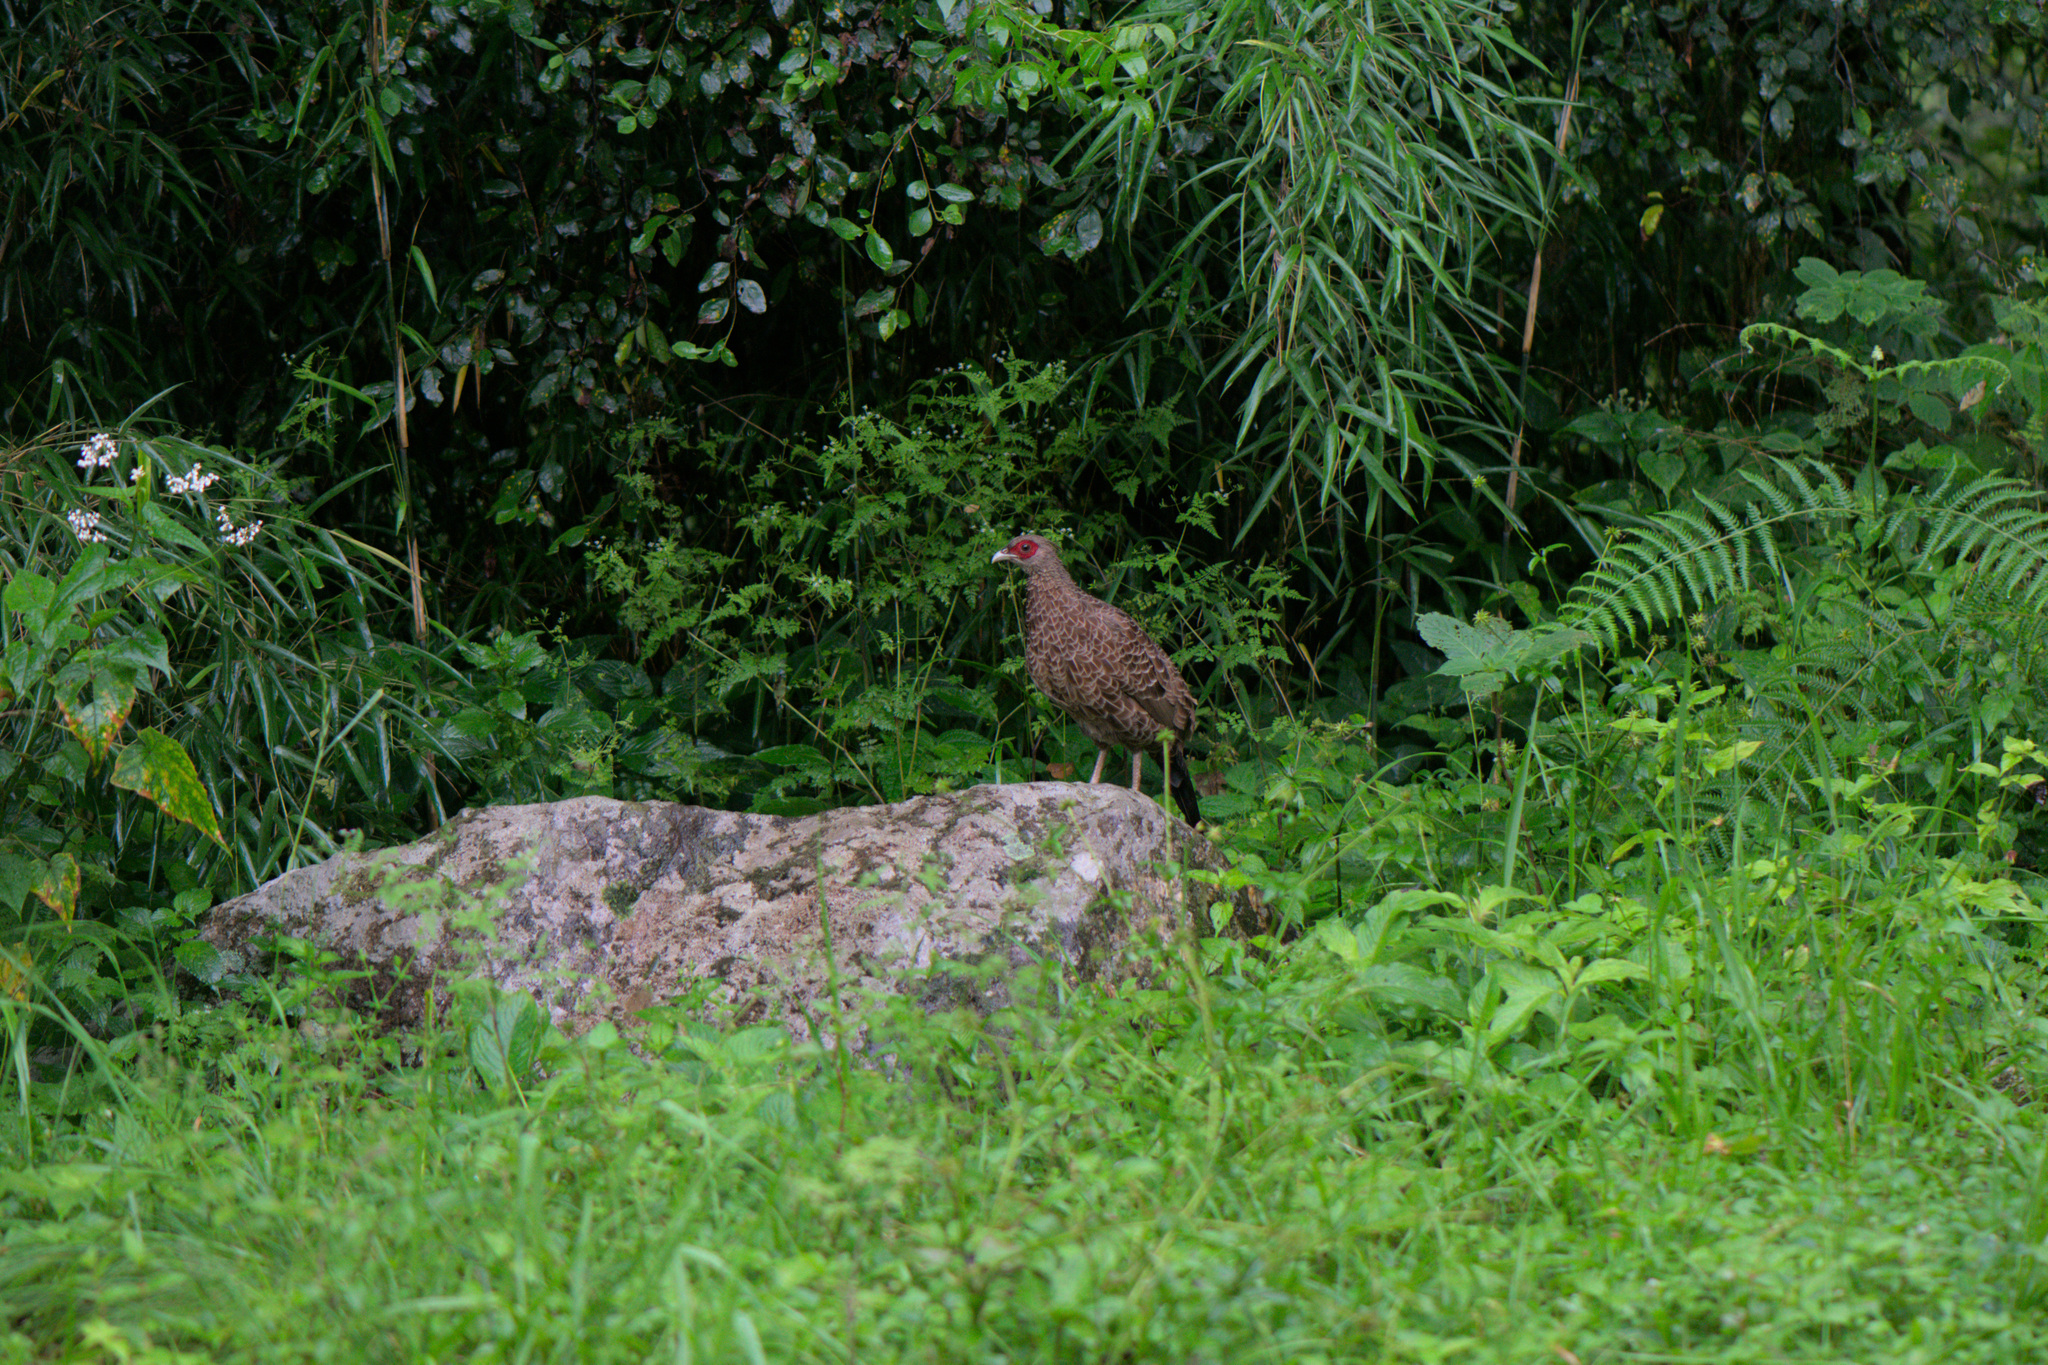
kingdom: Animalia
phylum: Chordata
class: Aves
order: Galliformes
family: Phasianidae
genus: Lophura
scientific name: Lophura leucomelanos
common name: Kalij pheasant
